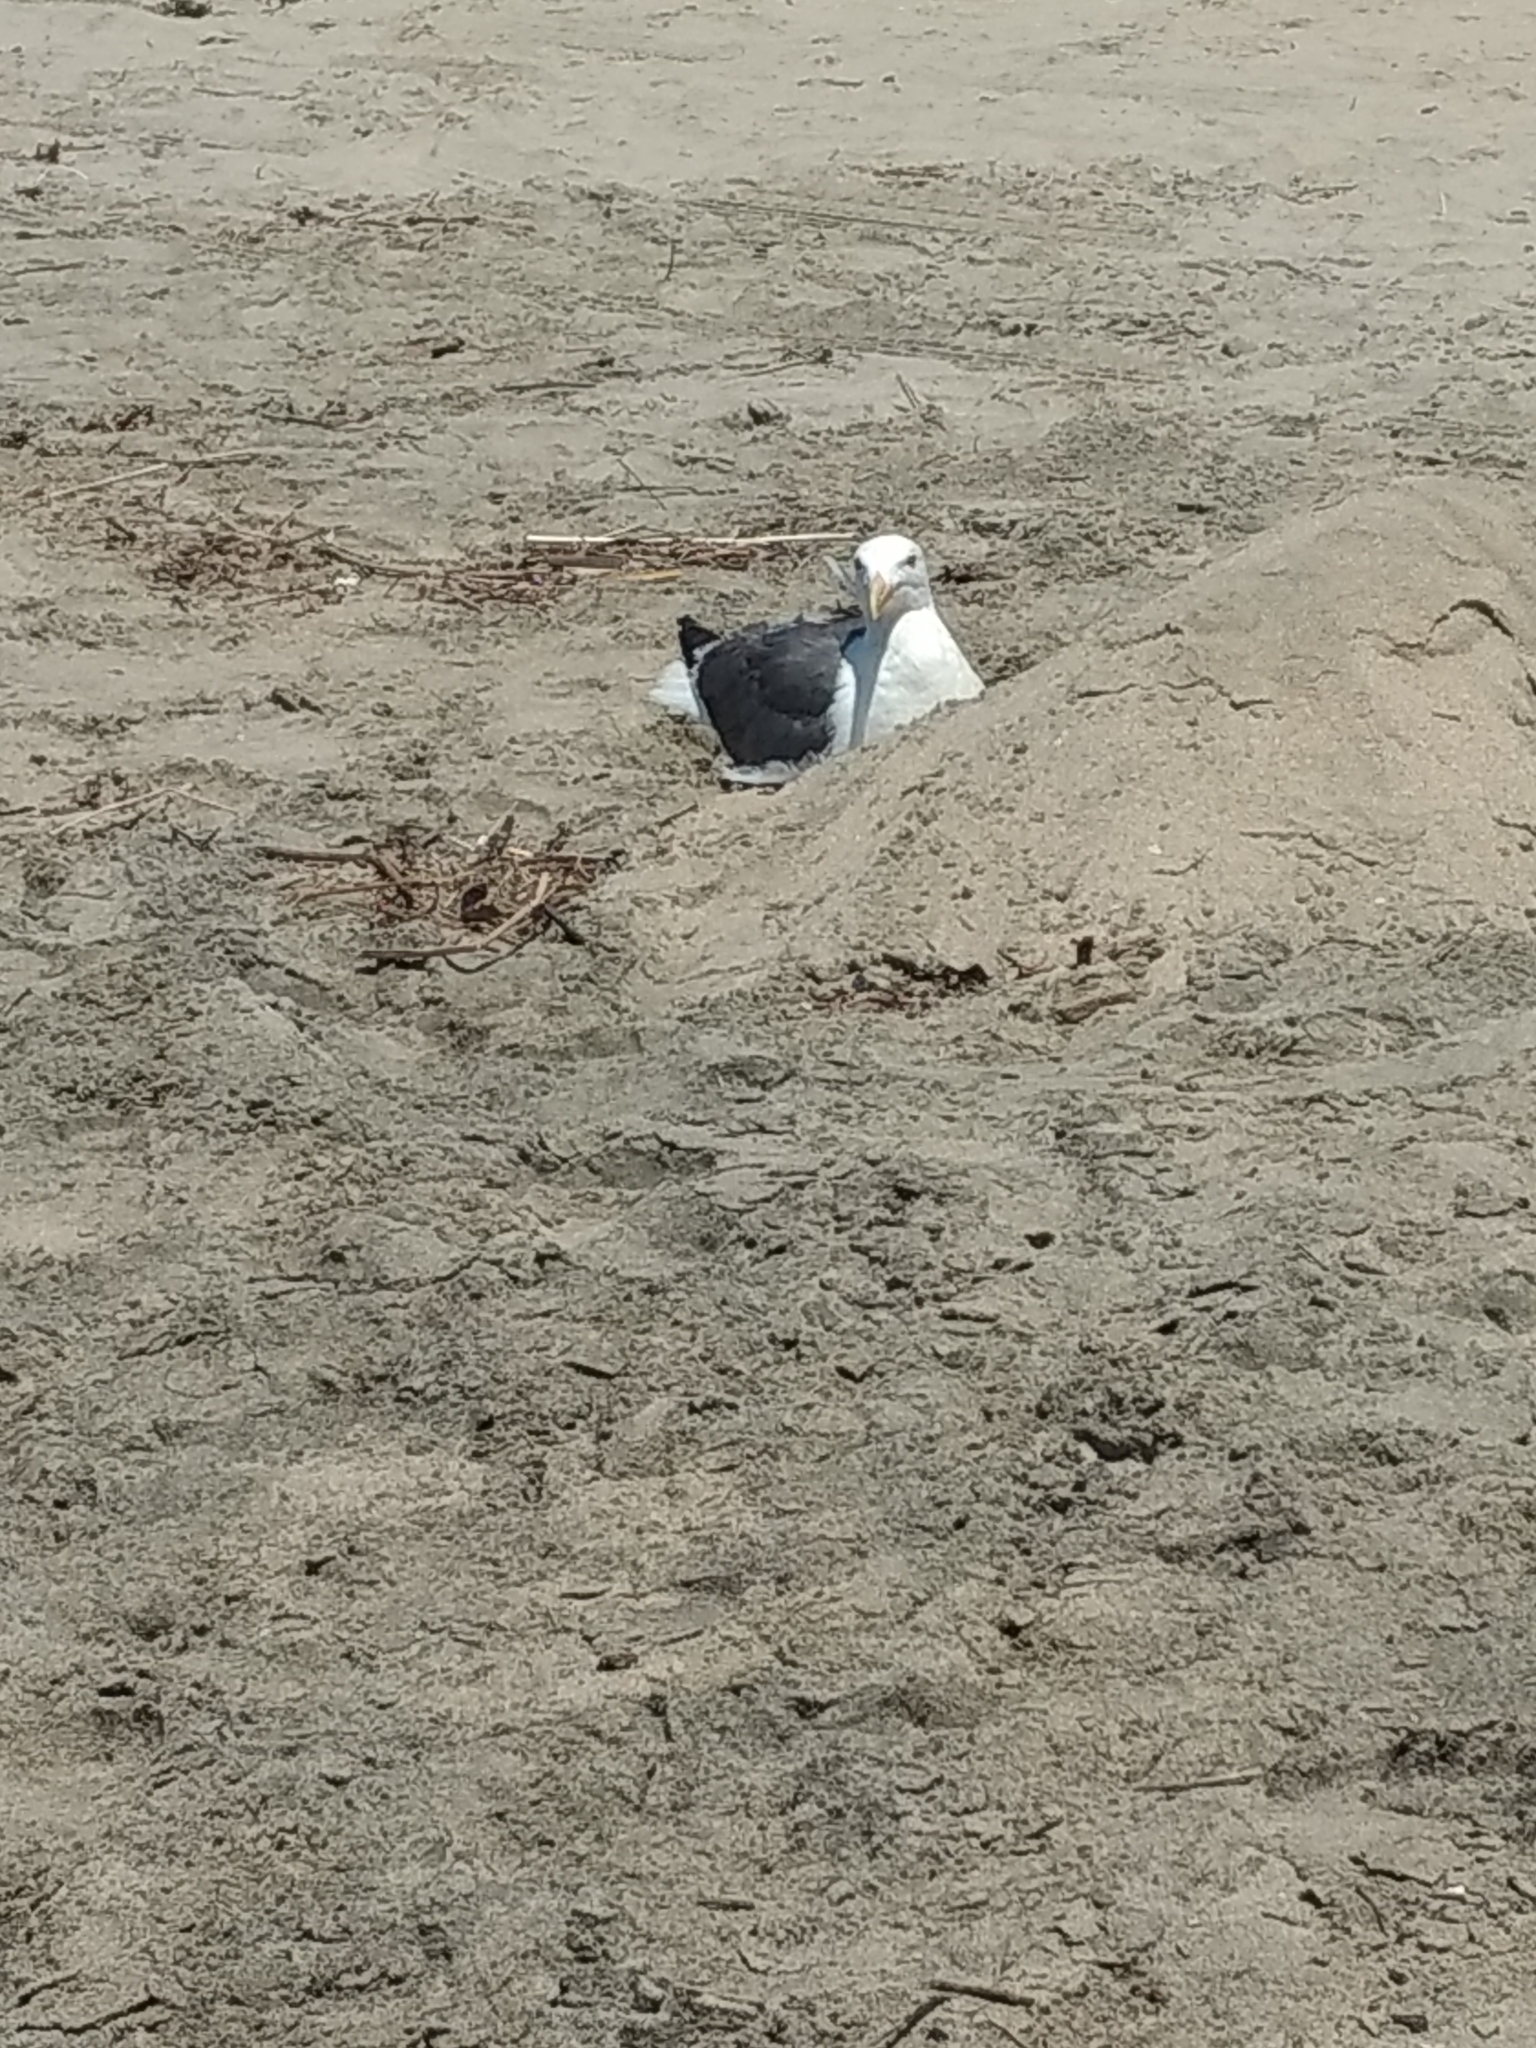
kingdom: Animalia
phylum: Chordata
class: Aves
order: Charadriiformes
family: Laridae
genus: Larus
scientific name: Larus occidentalis
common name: Western gull
